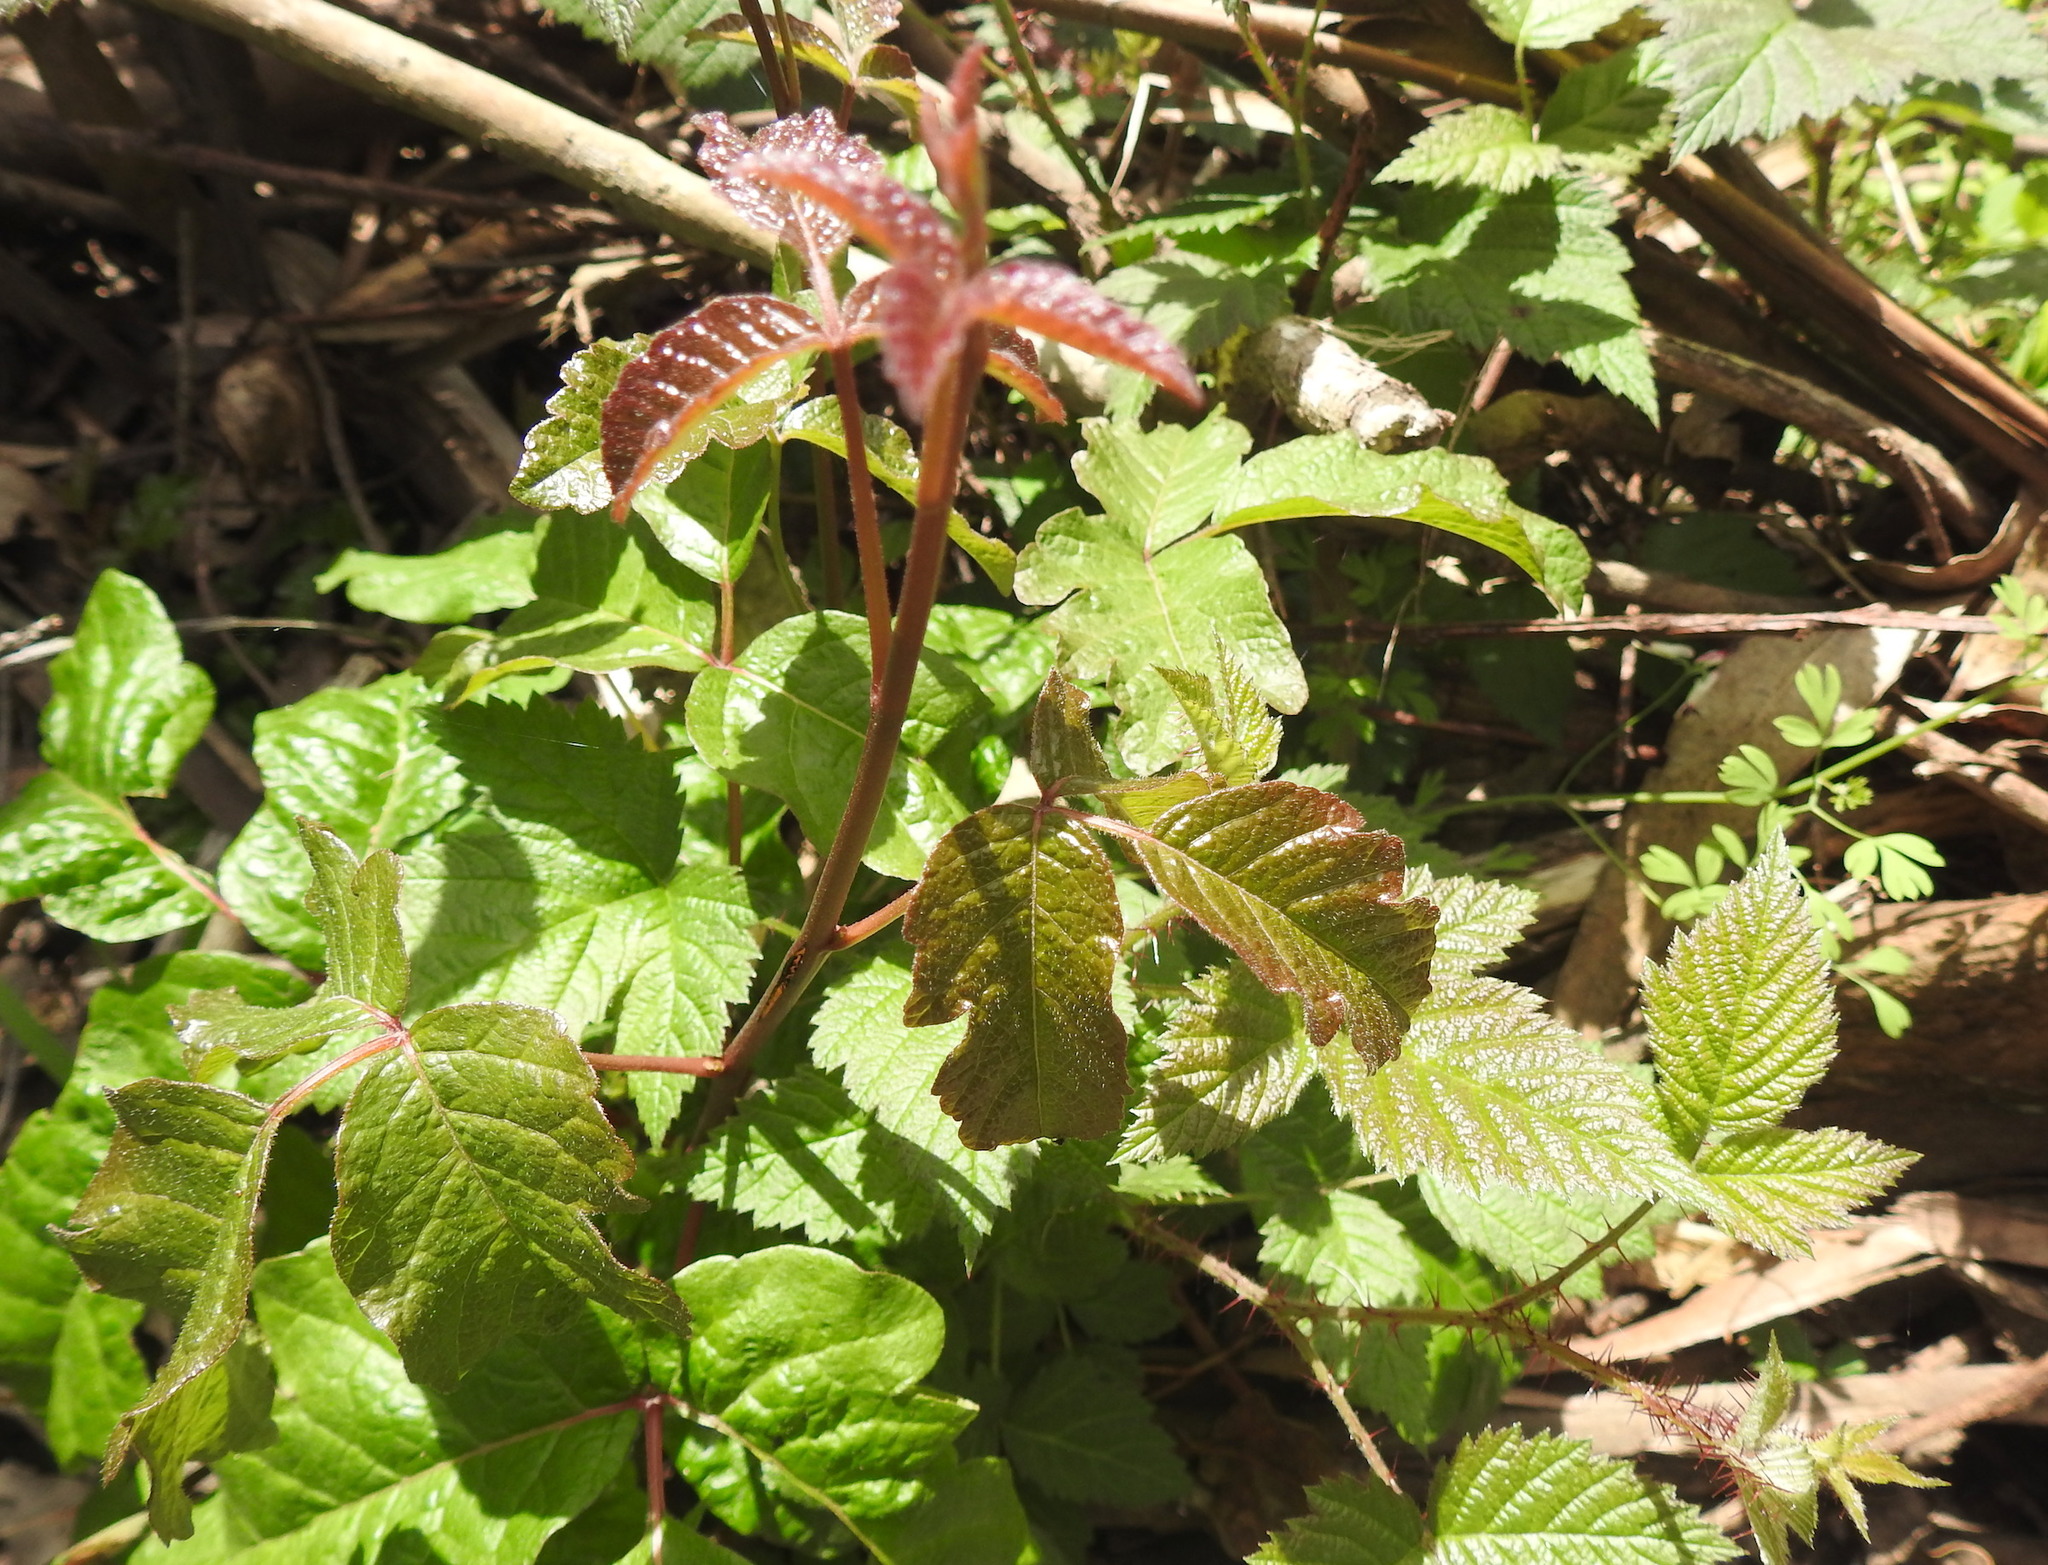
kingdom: Plantae
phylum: Tracheophyta
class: Magnoliopsida
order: Sapindales
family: Anacardiaceae
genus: Toxicodendron
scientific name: Toxicodendron diversilobum
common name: Pacific poison-oak
